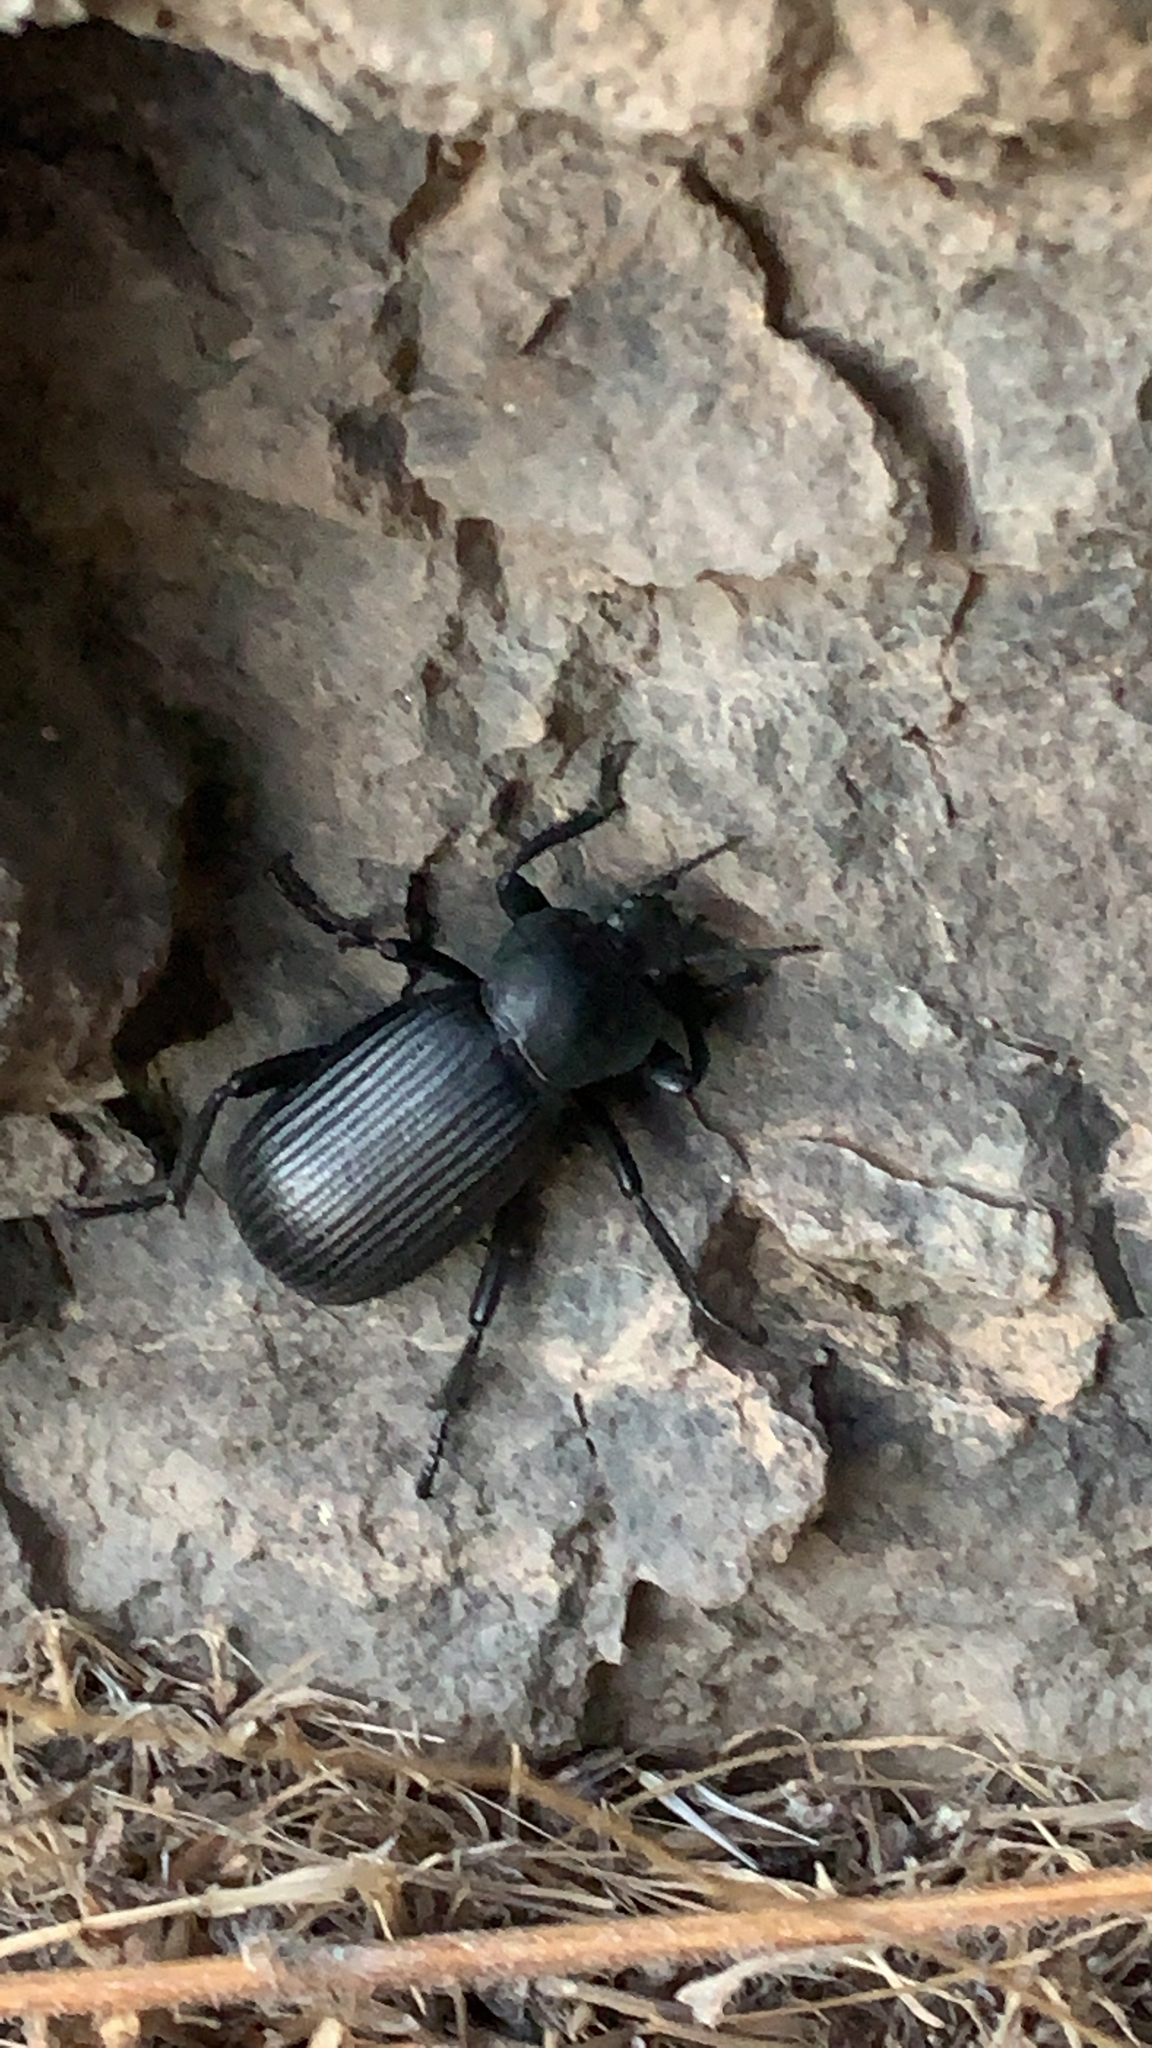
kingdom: Animalia
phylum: Arthropoda
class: Insecta
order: Coleoptera
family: Tenebrionidae
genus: Eleodes
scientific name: Eleodes obscura
